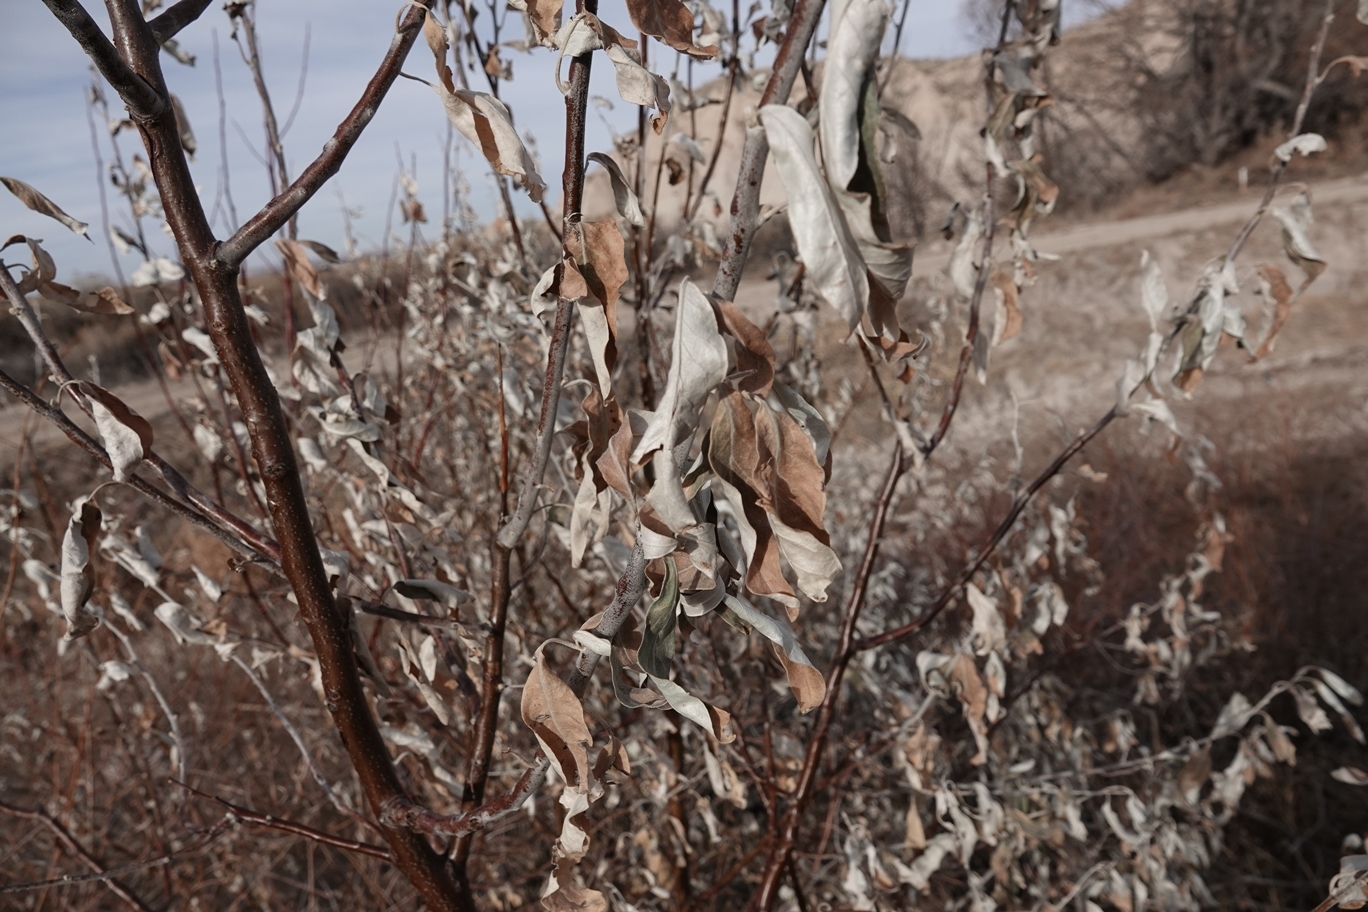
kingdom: Plantae
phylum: Tracheophyta
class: Magnoliopsida
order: Rosales
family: Elaeagnaceae
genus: Elaeagnus
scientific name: Elaeagnus angustifolia
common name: Russian olive
